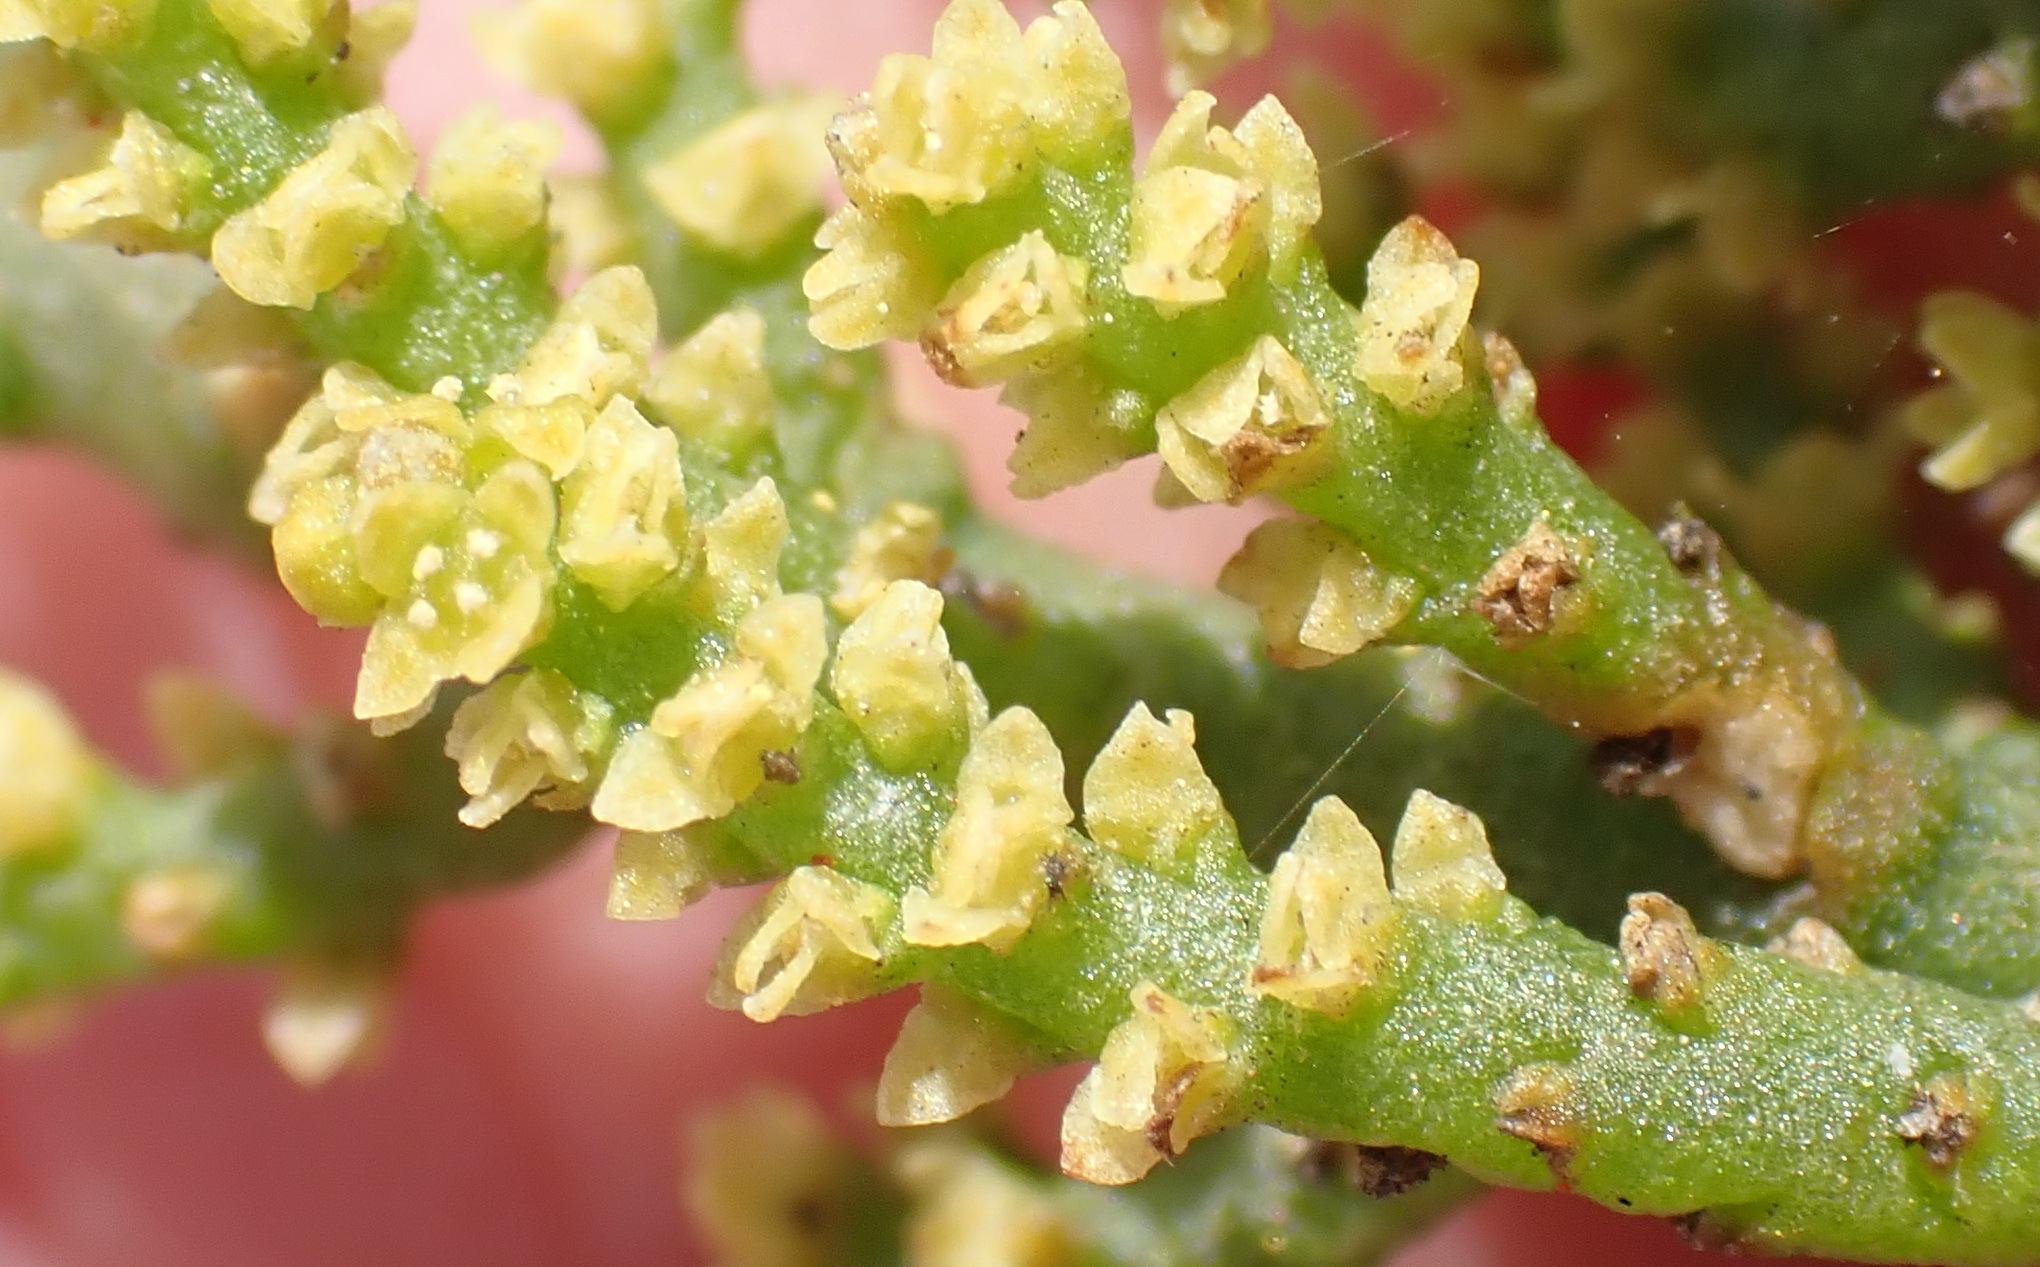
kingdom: Plantae
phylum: Tracheophyta
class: Magnoliopsida
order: Santalales
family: Viscaceae
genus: Viscum
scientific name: Viscum capense
